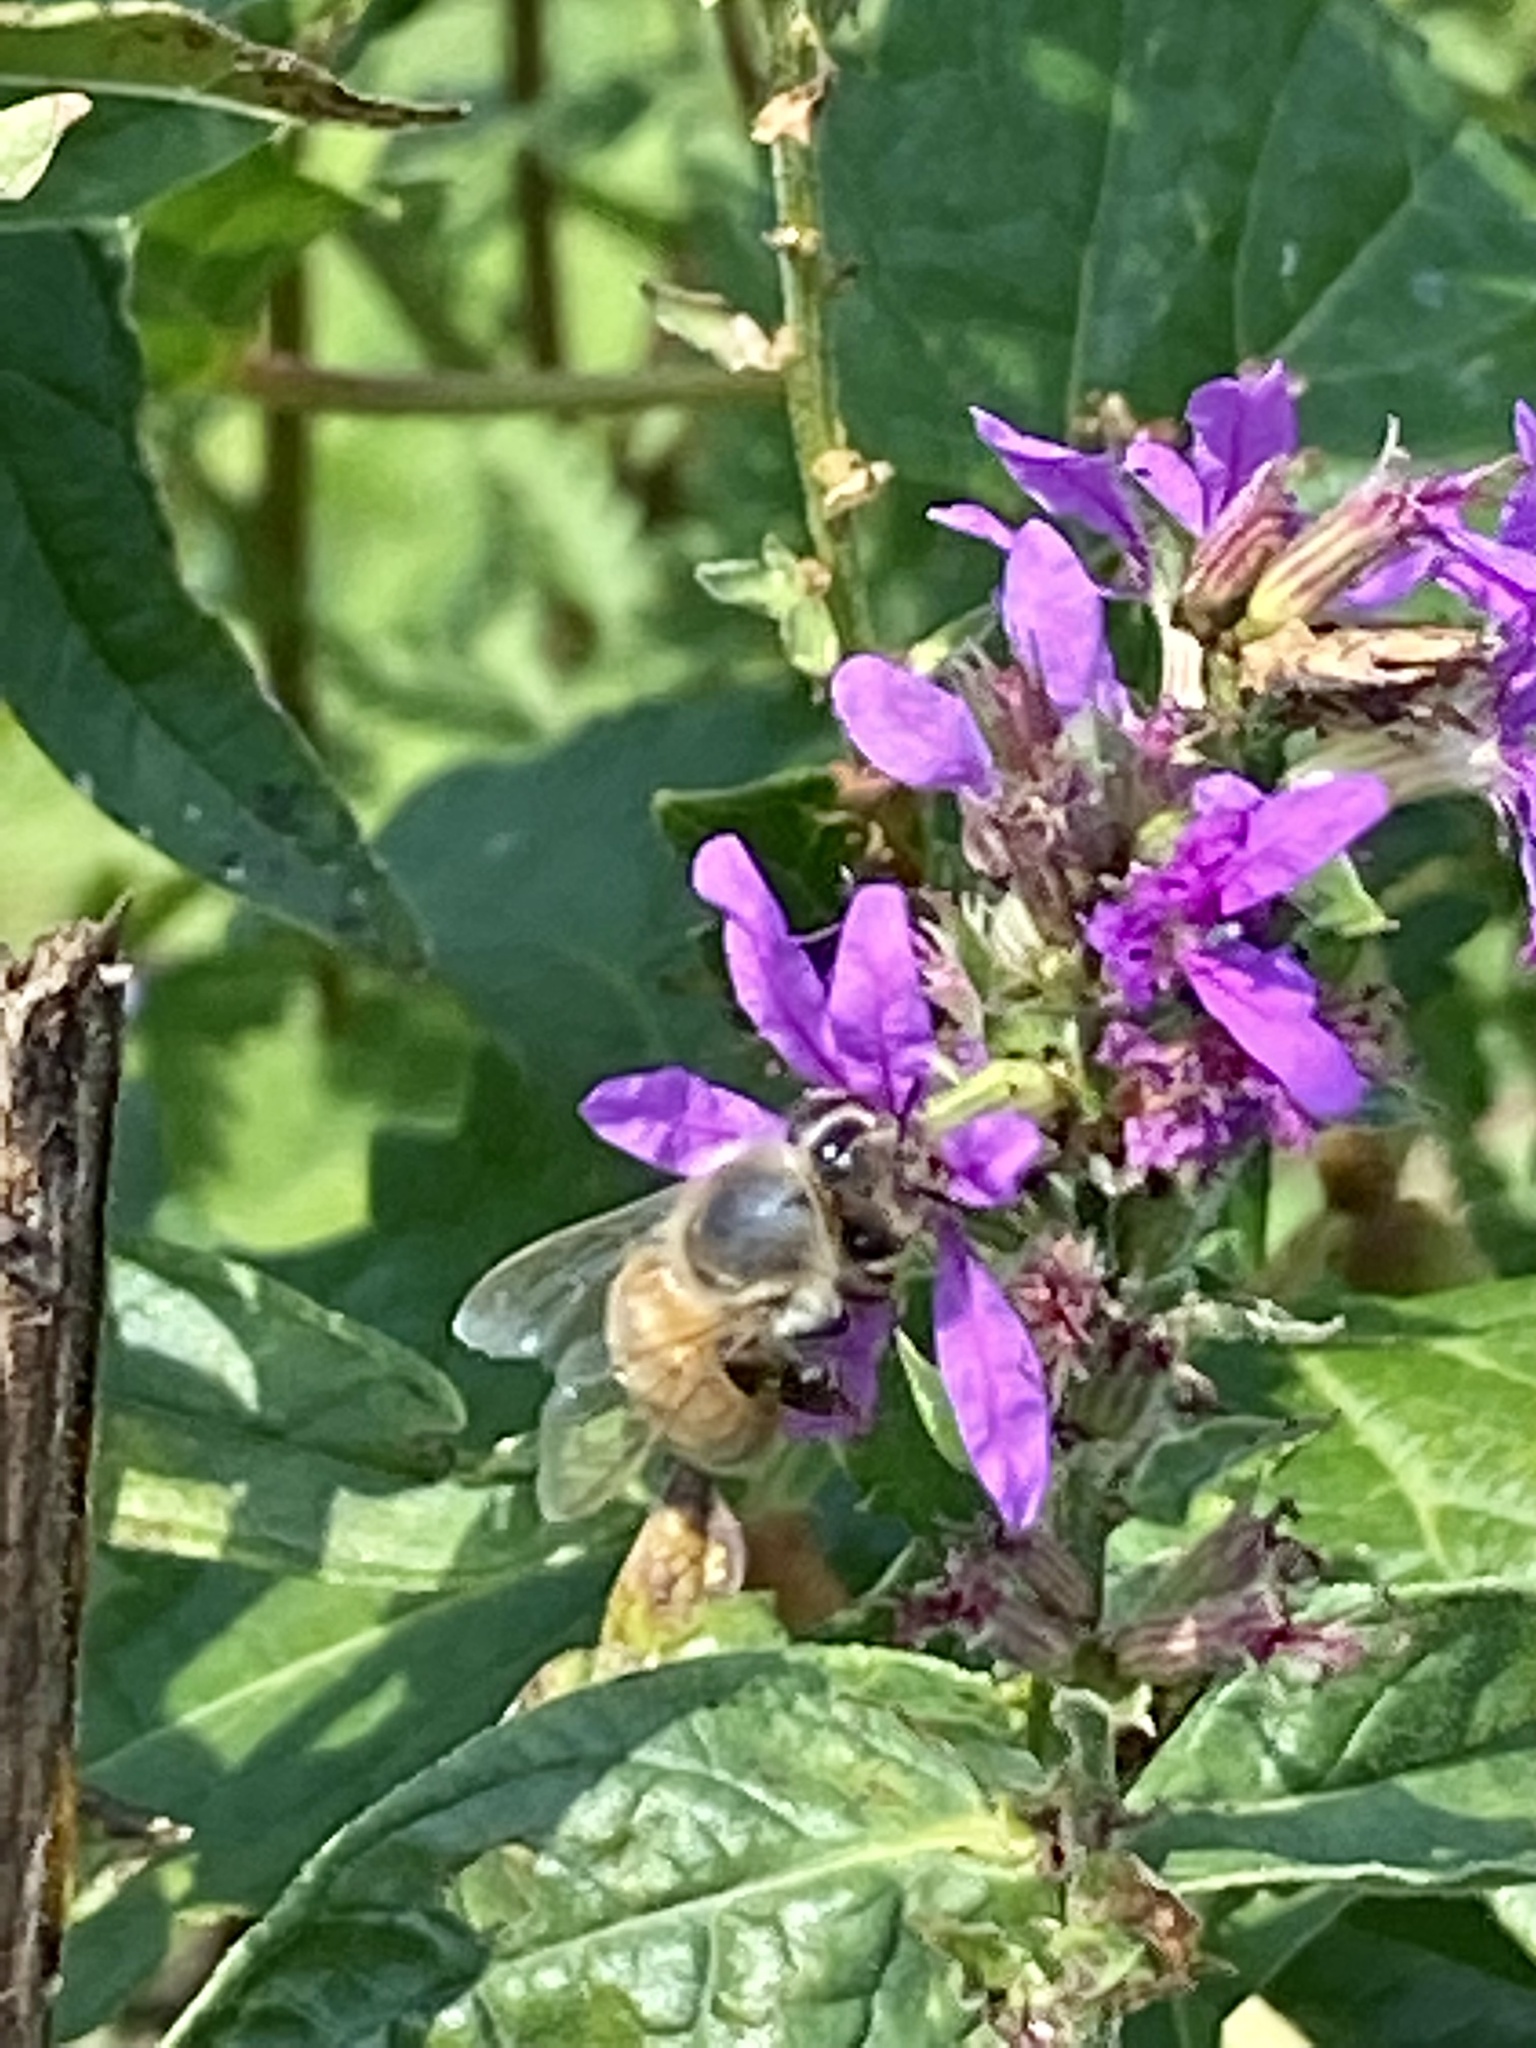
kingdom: Animalia
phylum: Arthropoda
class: Insecta
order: Hymenoptera
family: Apidae
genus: Apis
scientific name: Apis mellifera
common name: Honey bee
